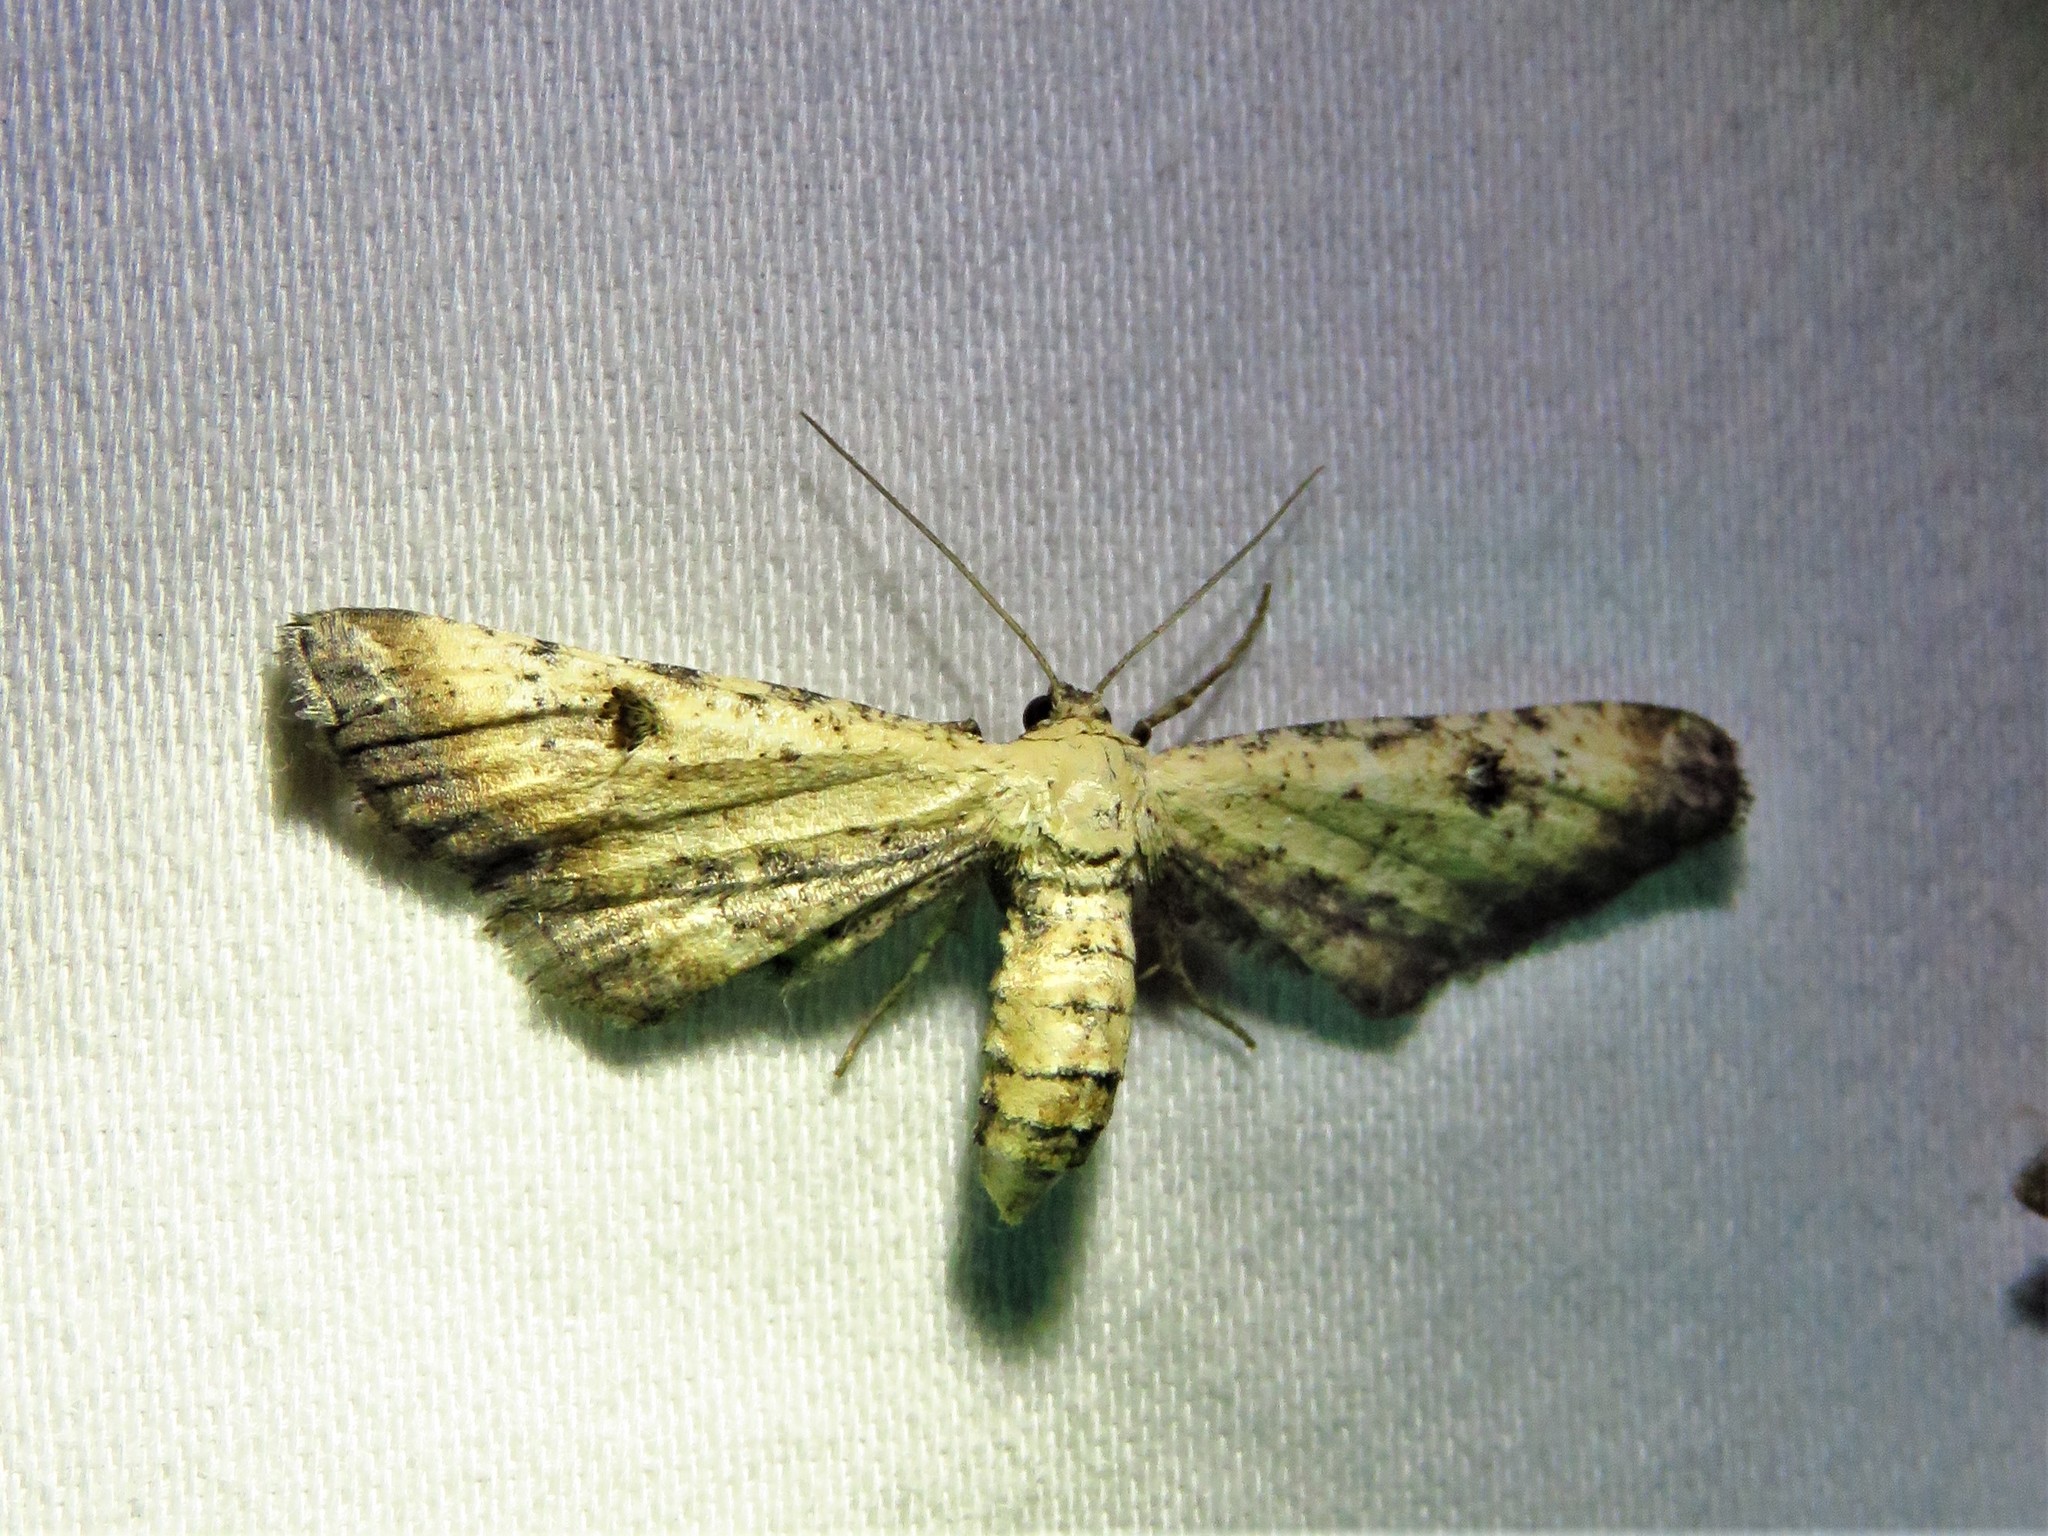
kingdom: Animalia
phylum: Arthropoda
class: Insecta
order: Lepidoptera
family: Geometridae
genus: Tornos
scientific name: Tornos scolopacinaria
